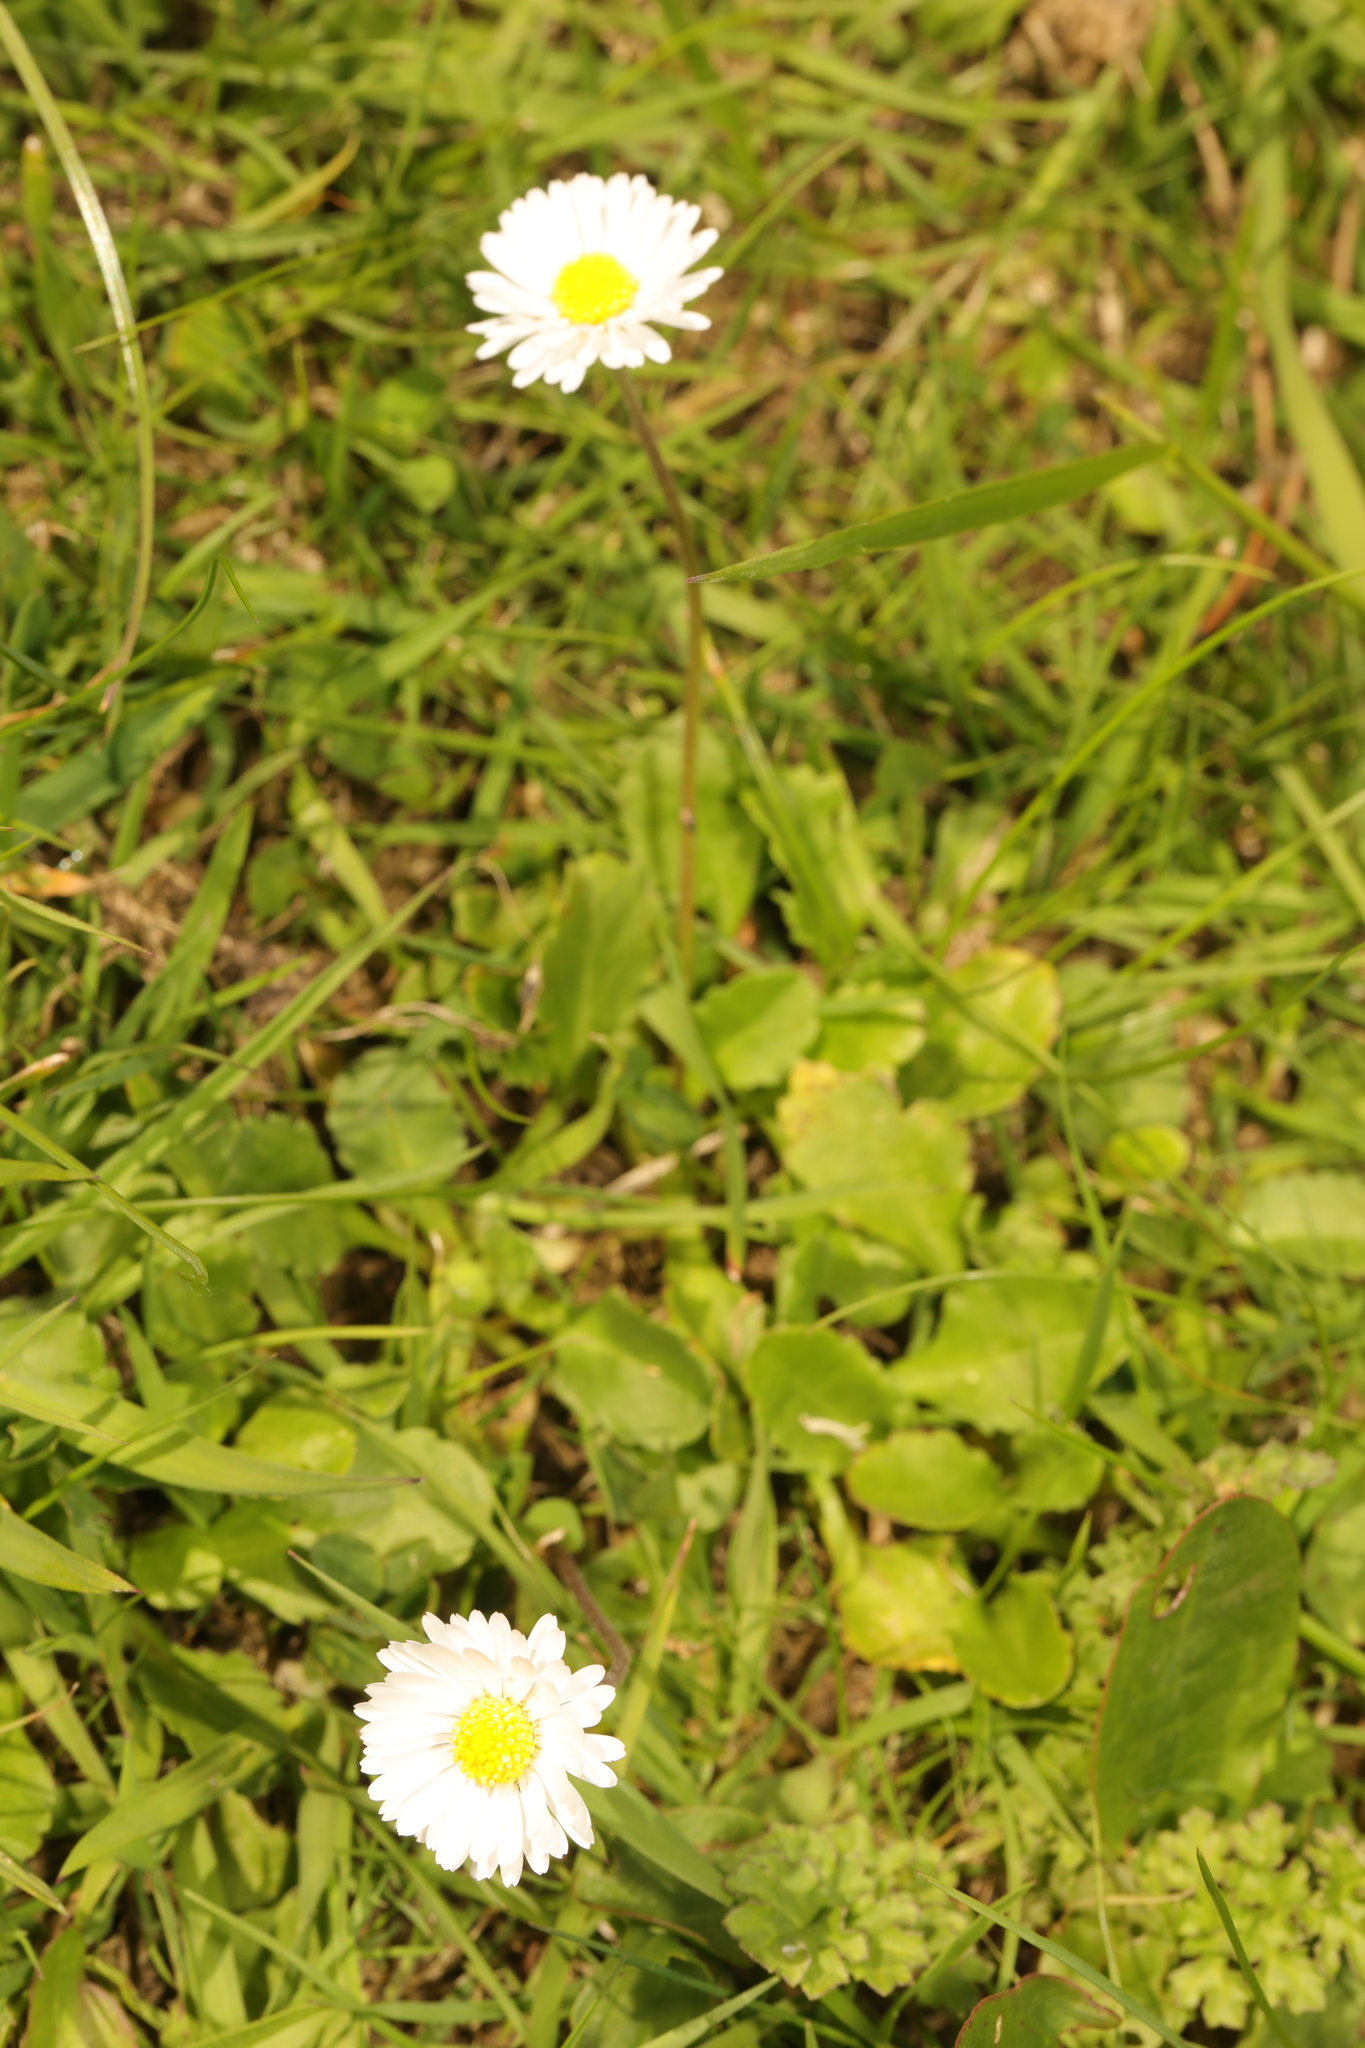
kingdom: Plantae
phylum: Tracheophyta
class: Magnoliopsida
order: Asterales
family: Asteraceae
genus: Bellis
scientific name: Bellis perennis
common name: Lawndaisy
